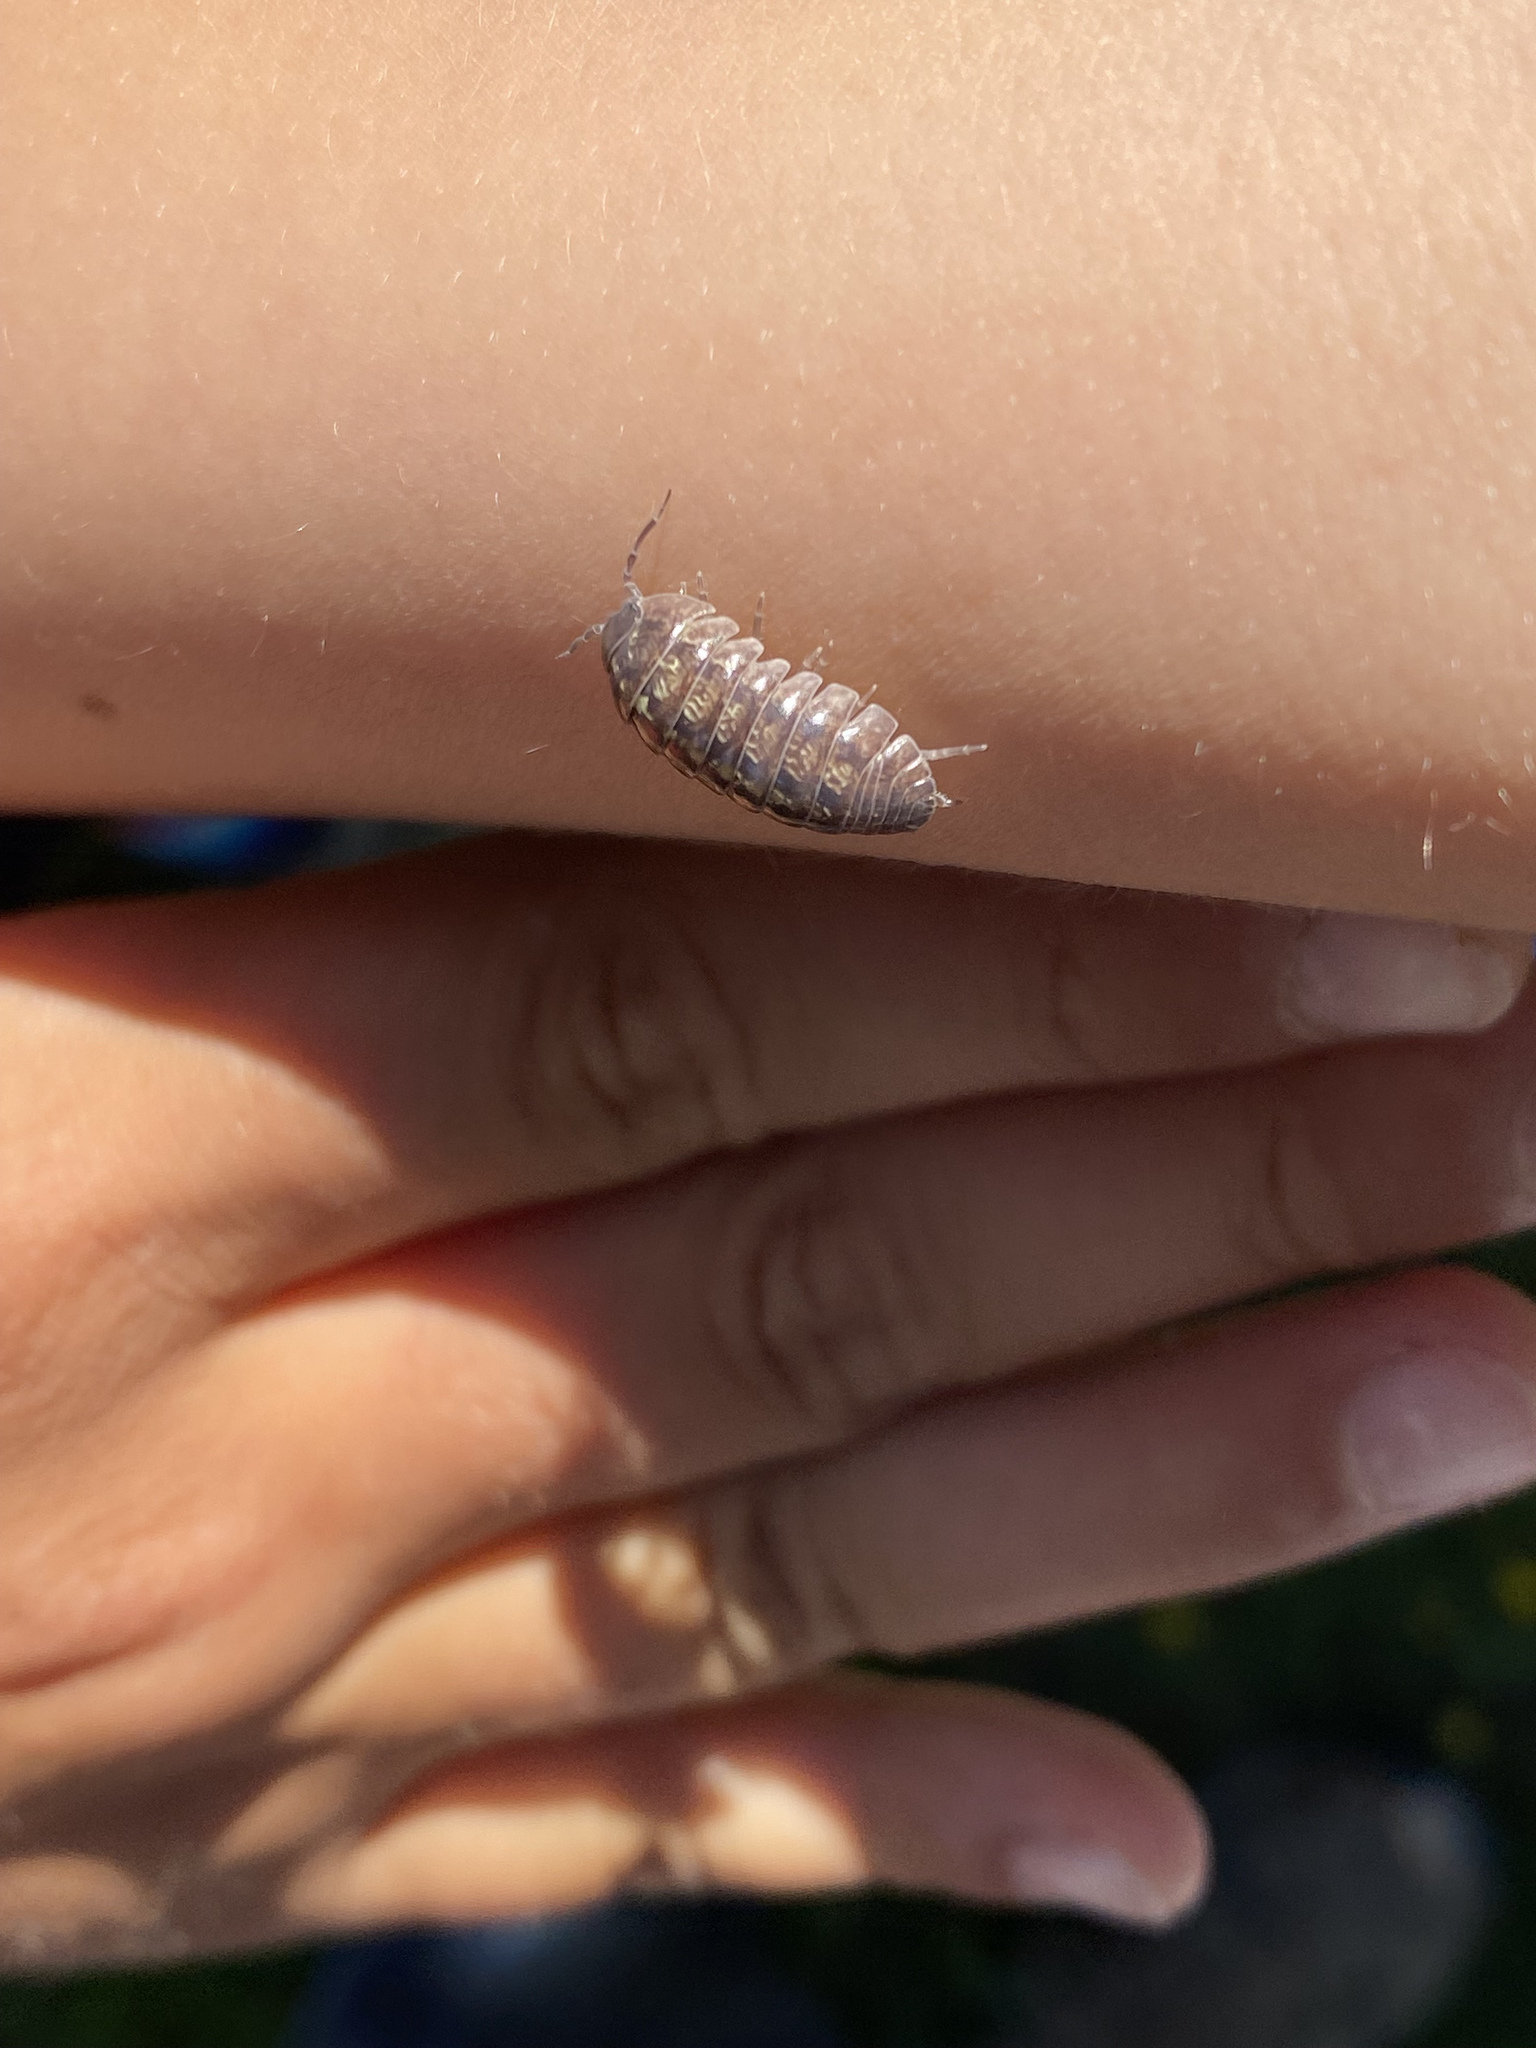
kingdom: Animalia
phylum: Arthropoda
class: Malacostraca
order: Isopoda
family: Armadillidiidae
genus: Armadillidium
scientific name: Armadillidium vulgare
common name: Common pill woodlouse
